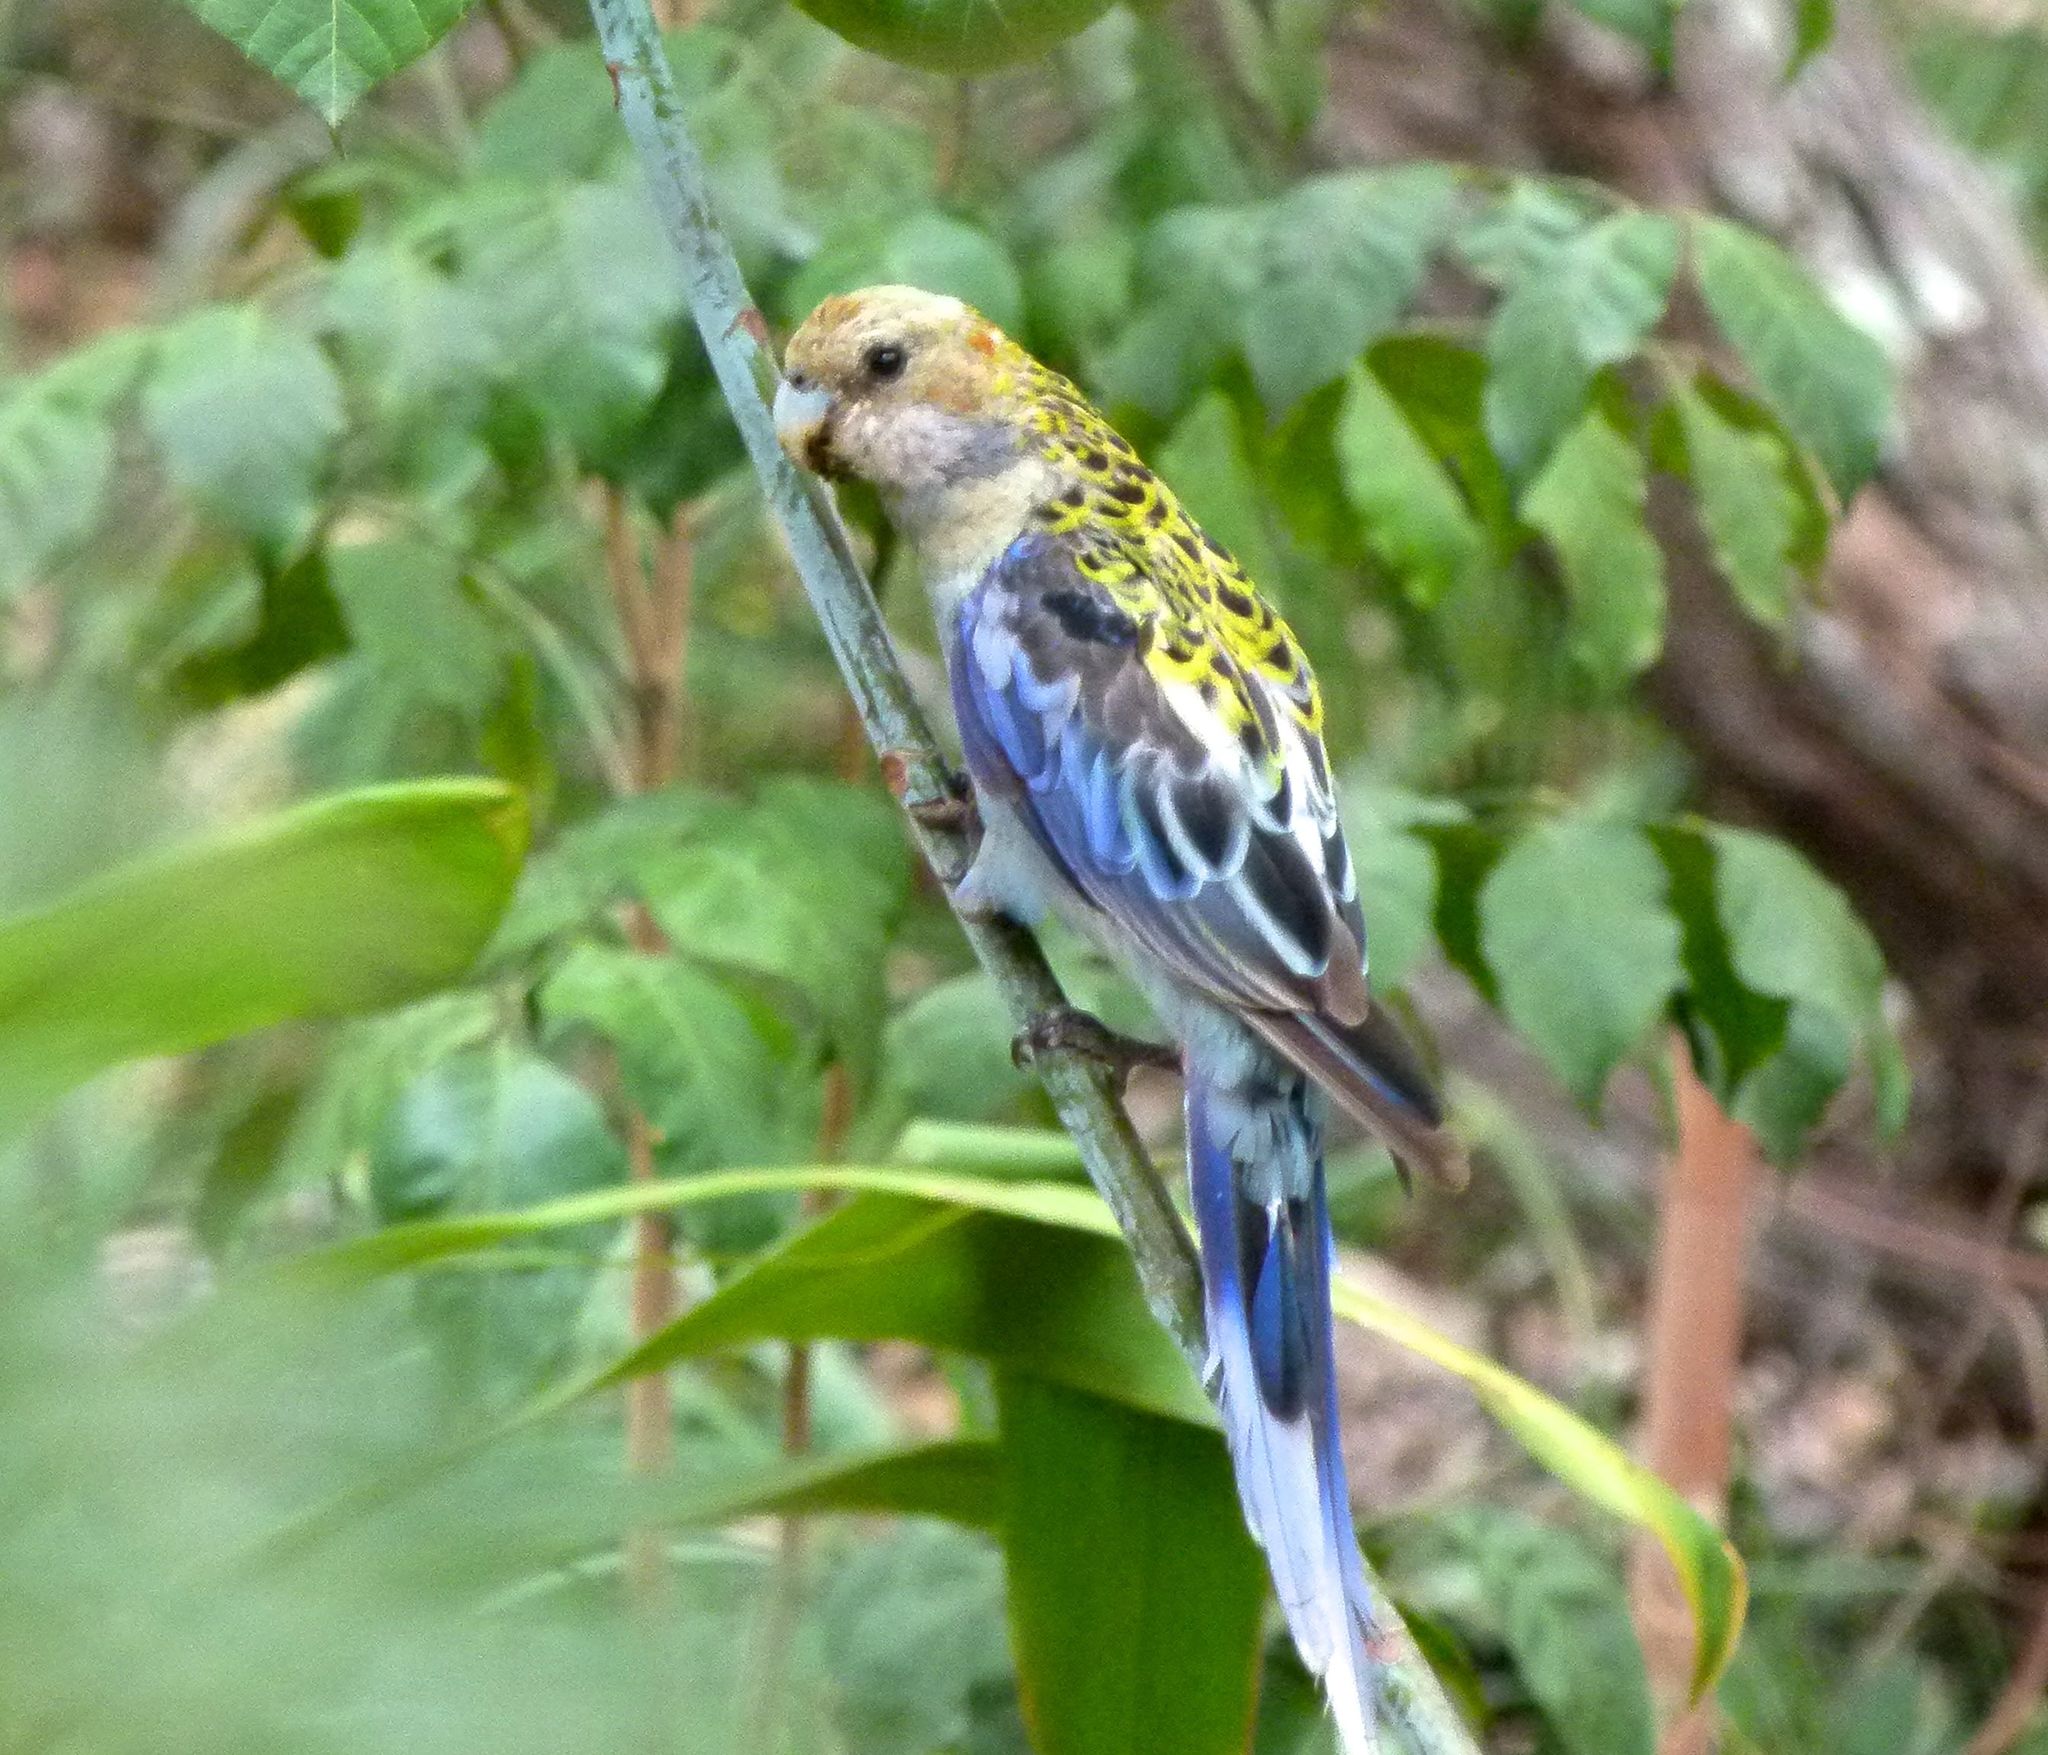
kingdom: Animalia
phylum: Chordata
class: Aves
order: Psittaciformes
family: Psittacidae
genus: Platycercus
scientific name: Platycercus adscitus
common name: Pale-headed rosella
